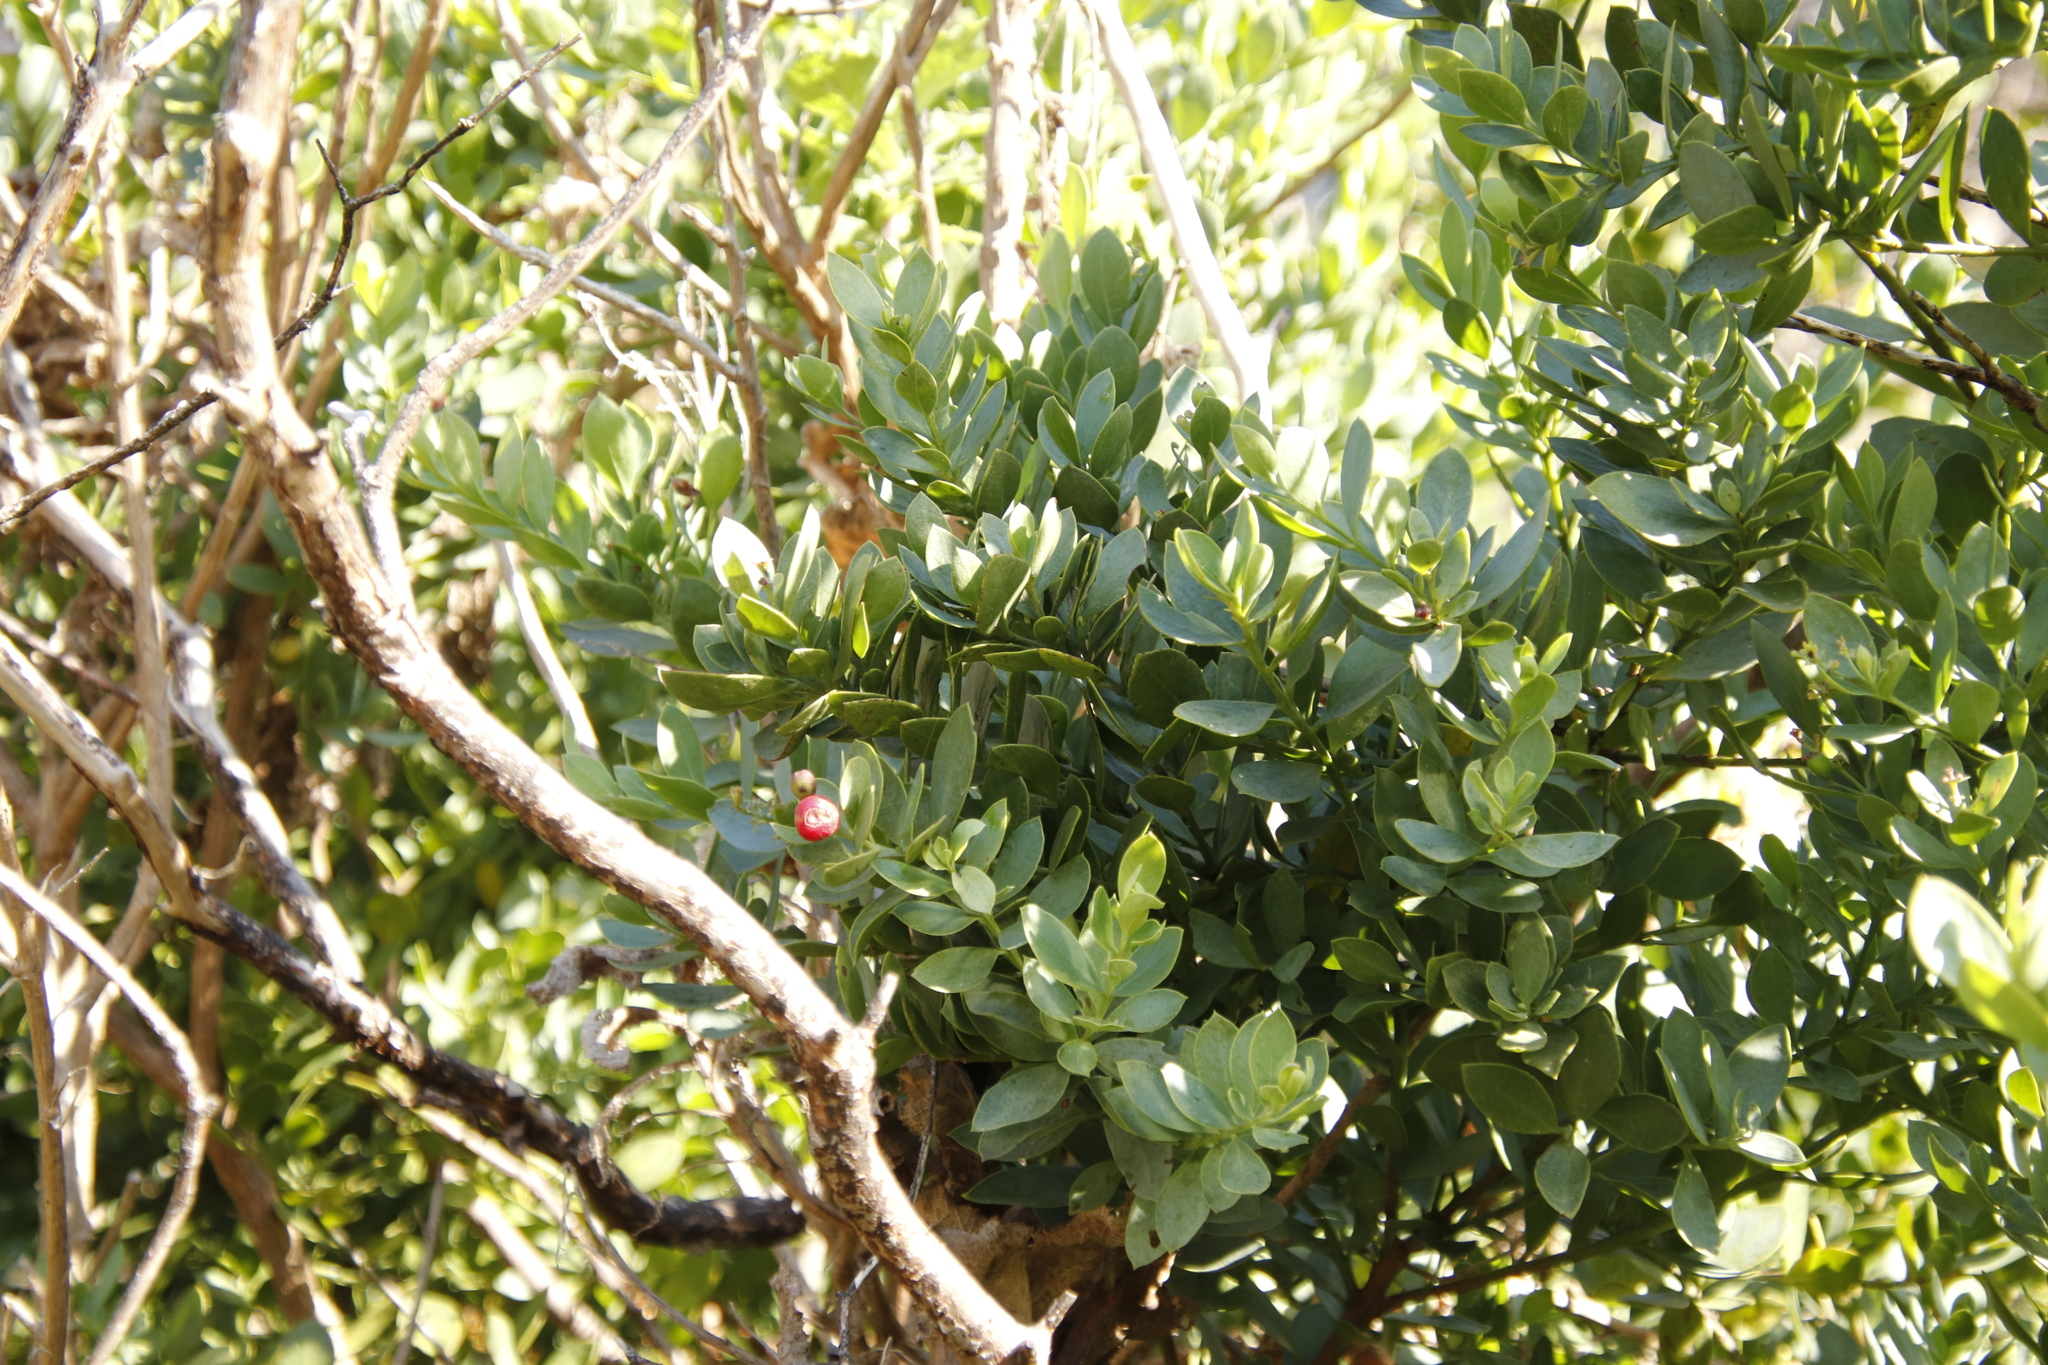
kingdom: Plantae
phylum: Tracheophyta
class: Magnoliopsida
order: Santalales
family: Santalaceae
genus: Osyris
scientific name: Osyris compressa
